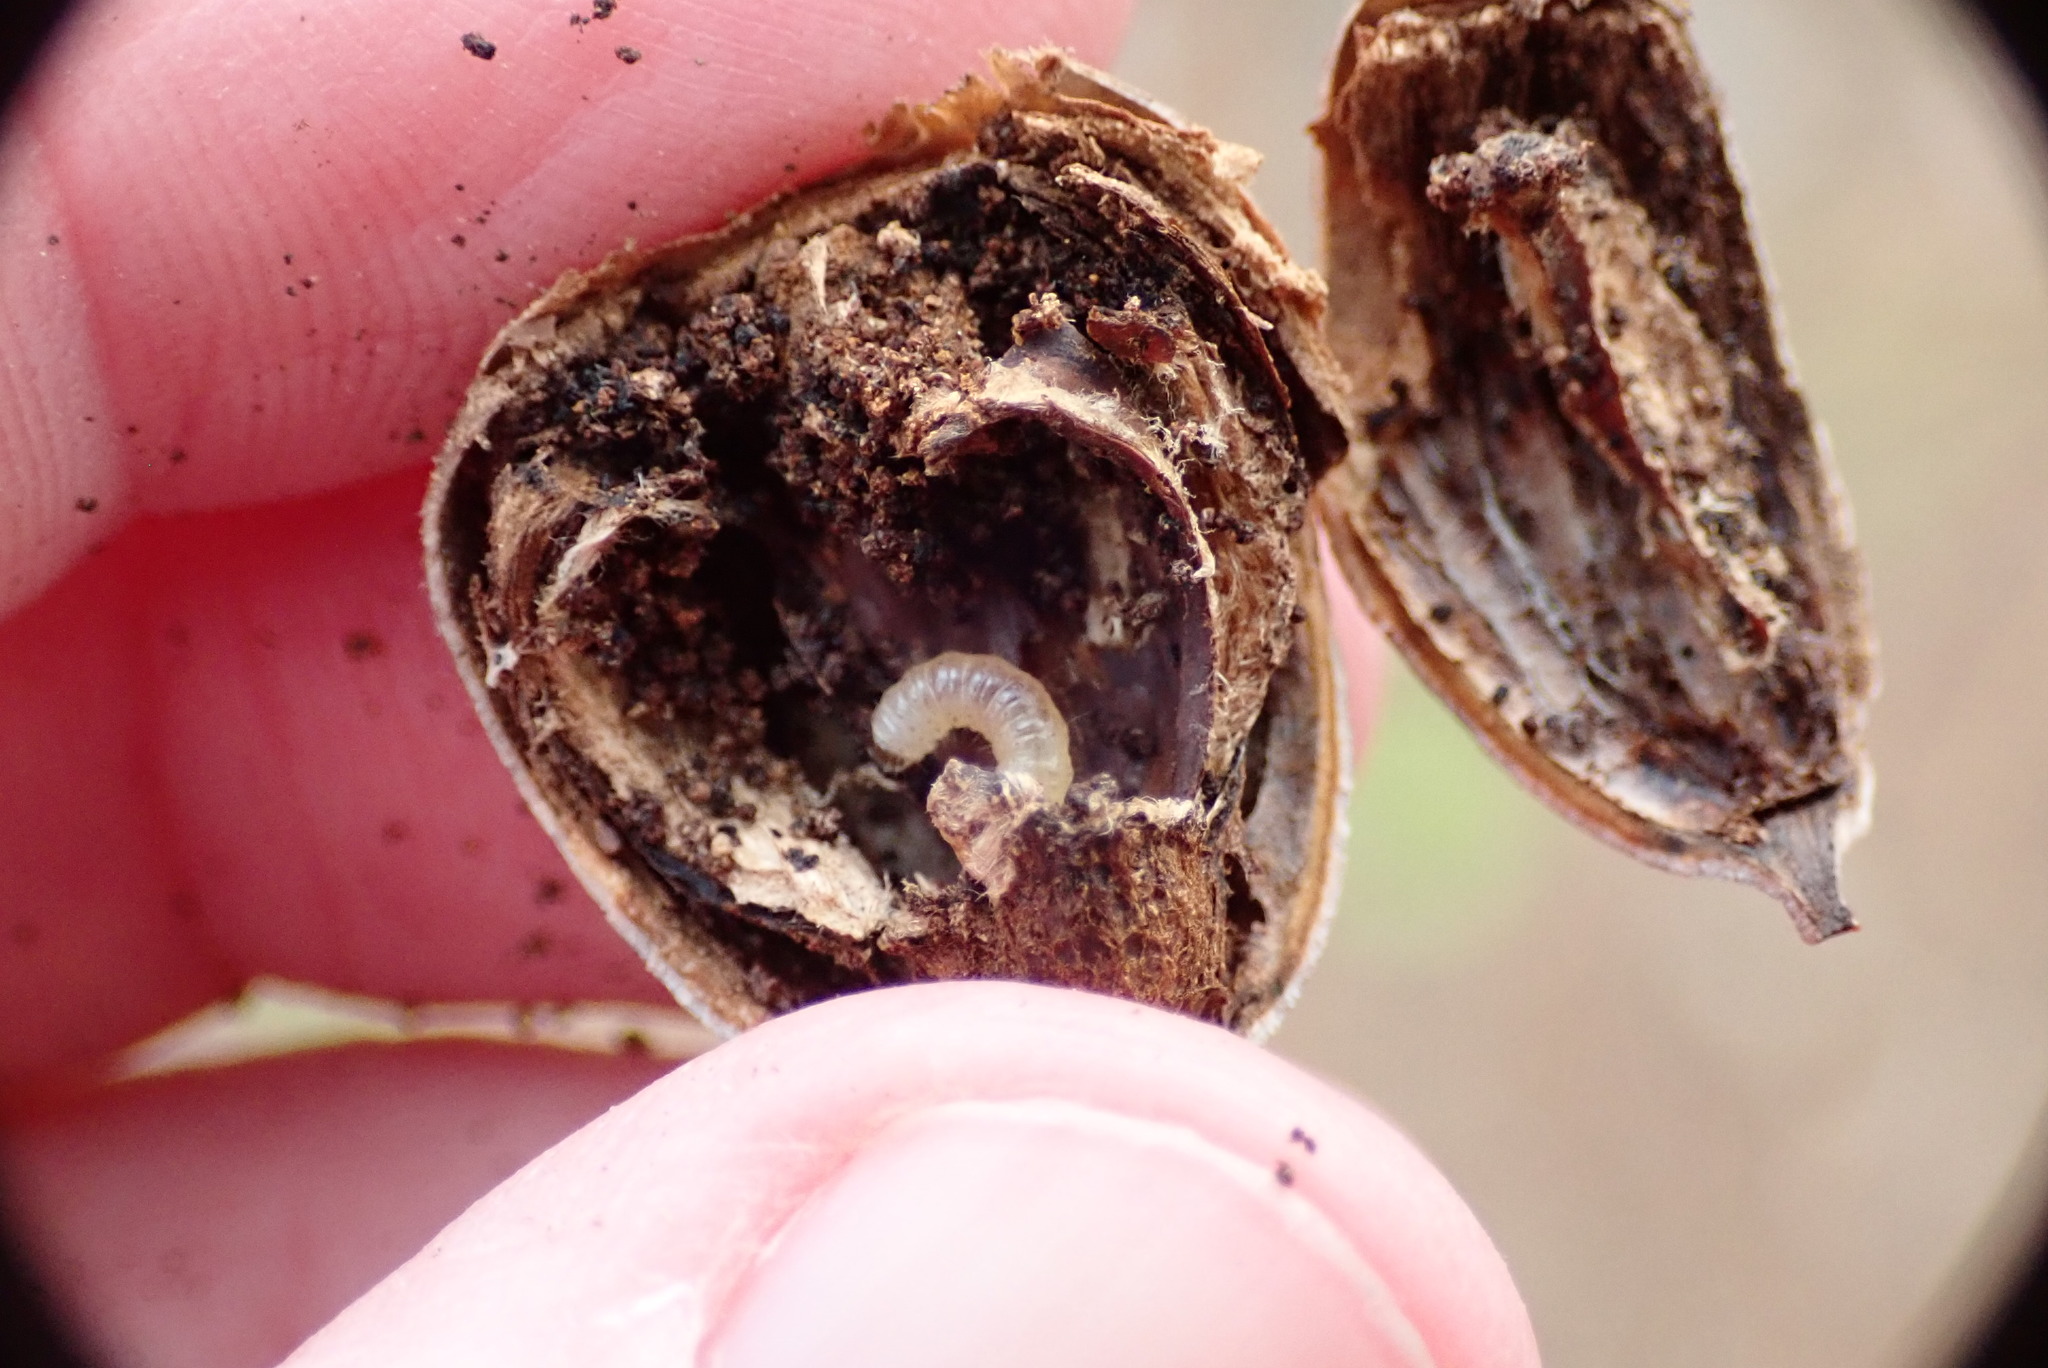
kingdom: Animalia
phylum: Arthropoda
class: Insecta
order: Lepidoptera
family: Blastobasidae
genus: Blastobasis
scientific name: Blastobasis glandulella
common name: Acorn moth
